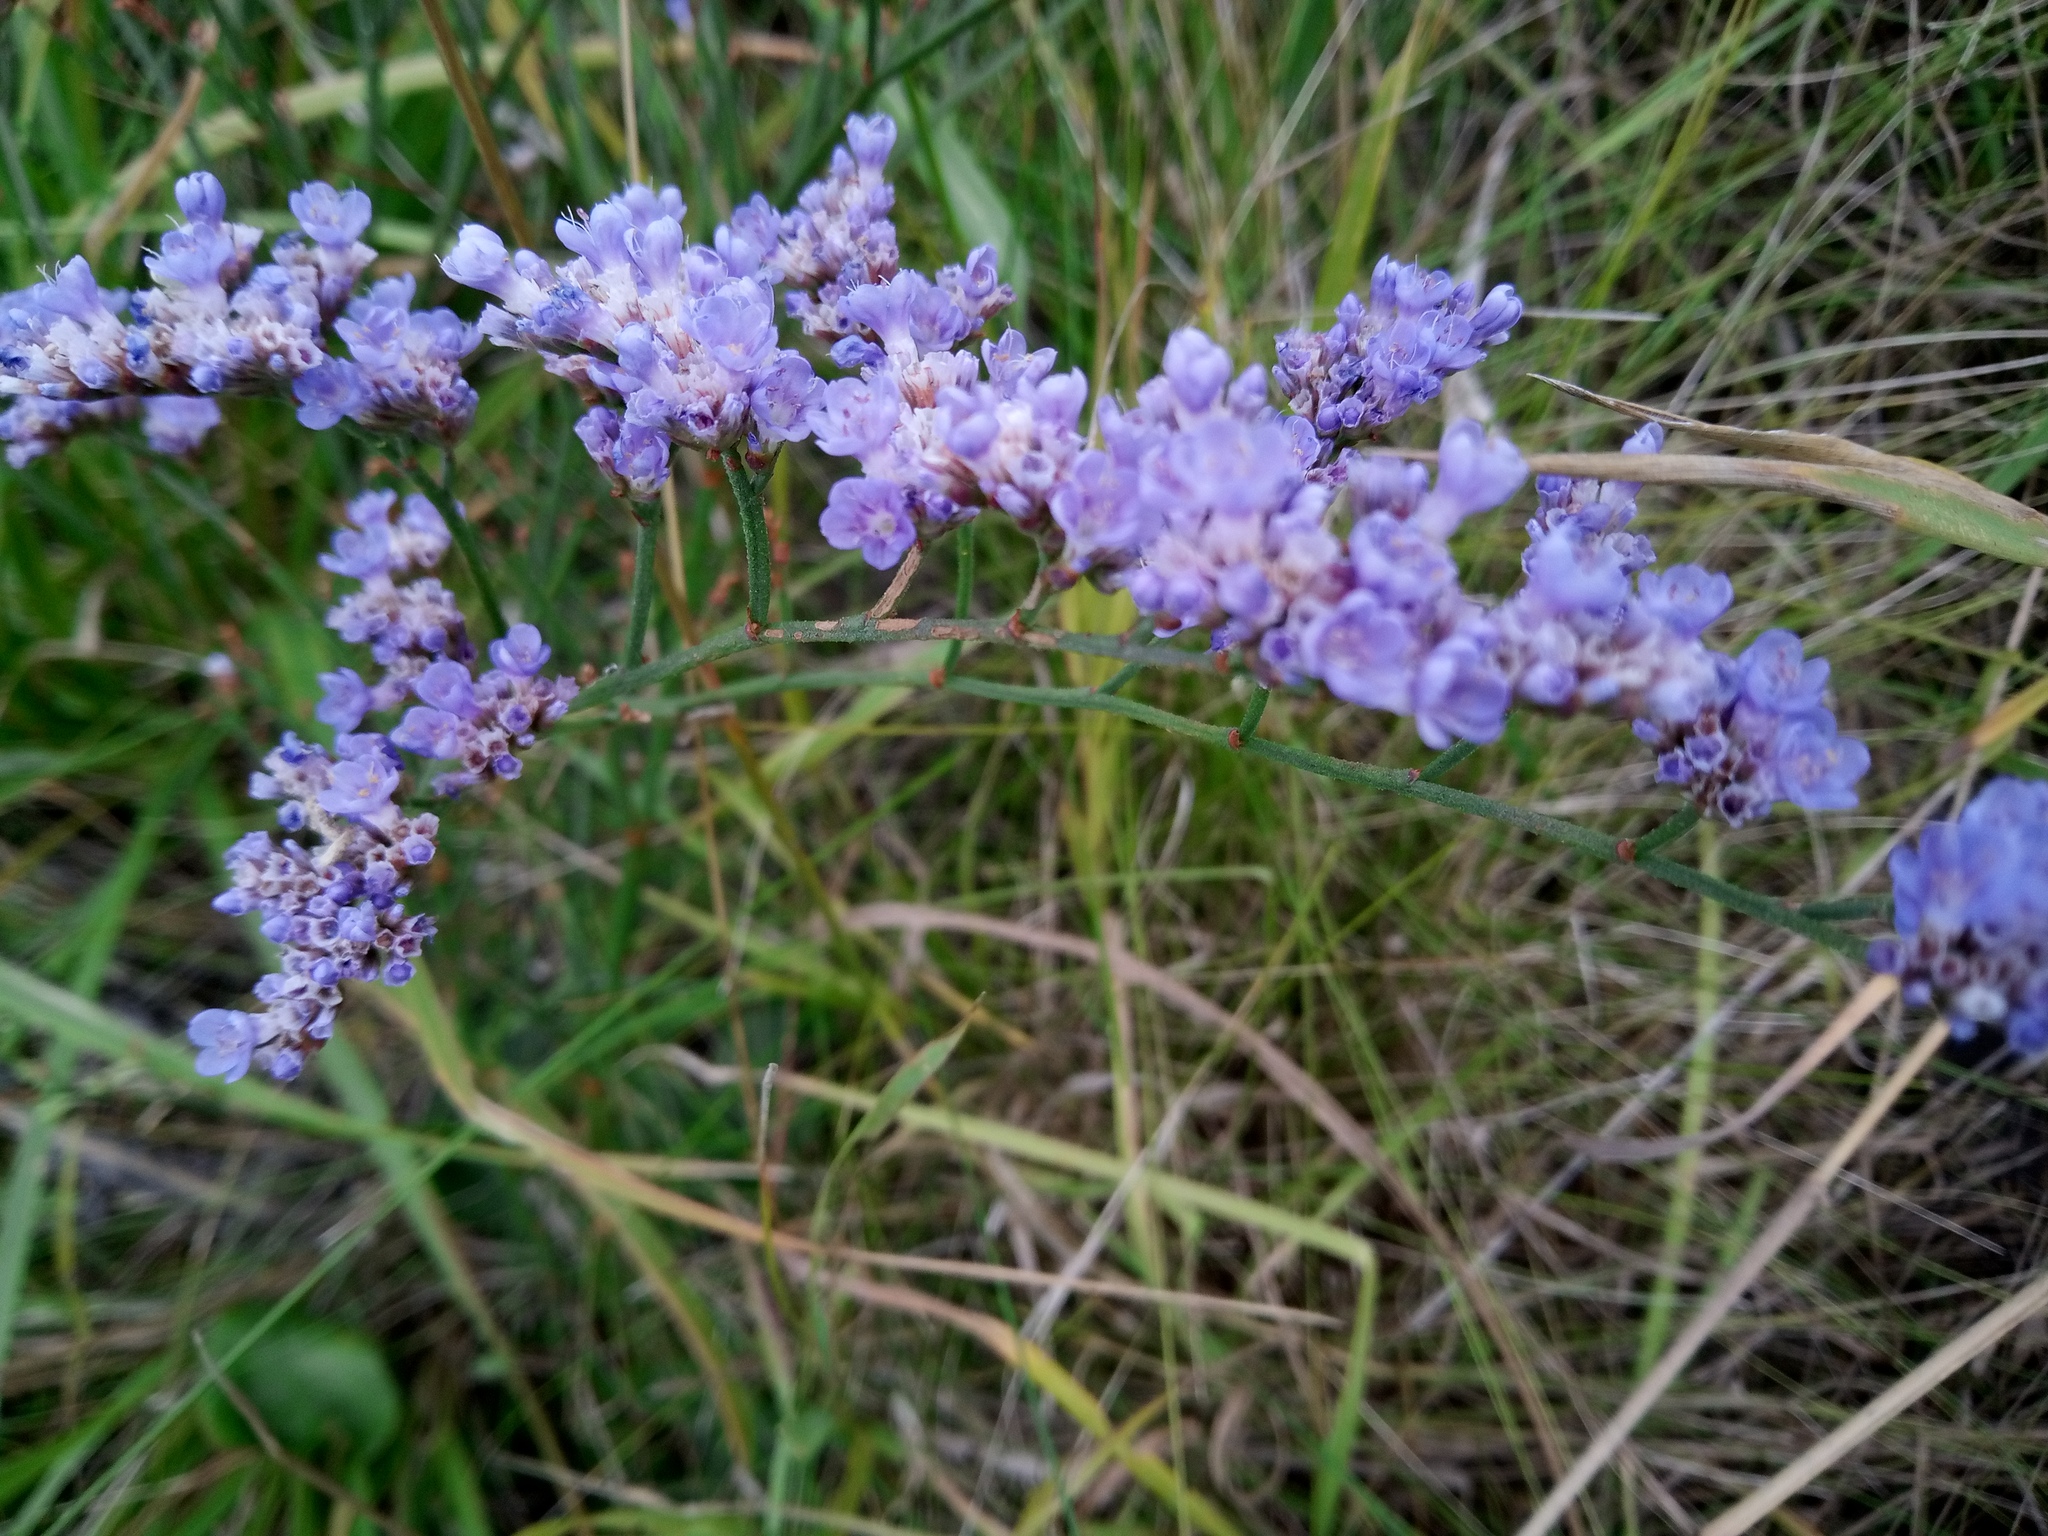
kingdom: Plantae
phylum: Tracheophyta
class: Magnoliopsida
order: Caryophyllales
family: Plumbaginaceae
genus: Limonium
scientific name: Limonium alutaceum
